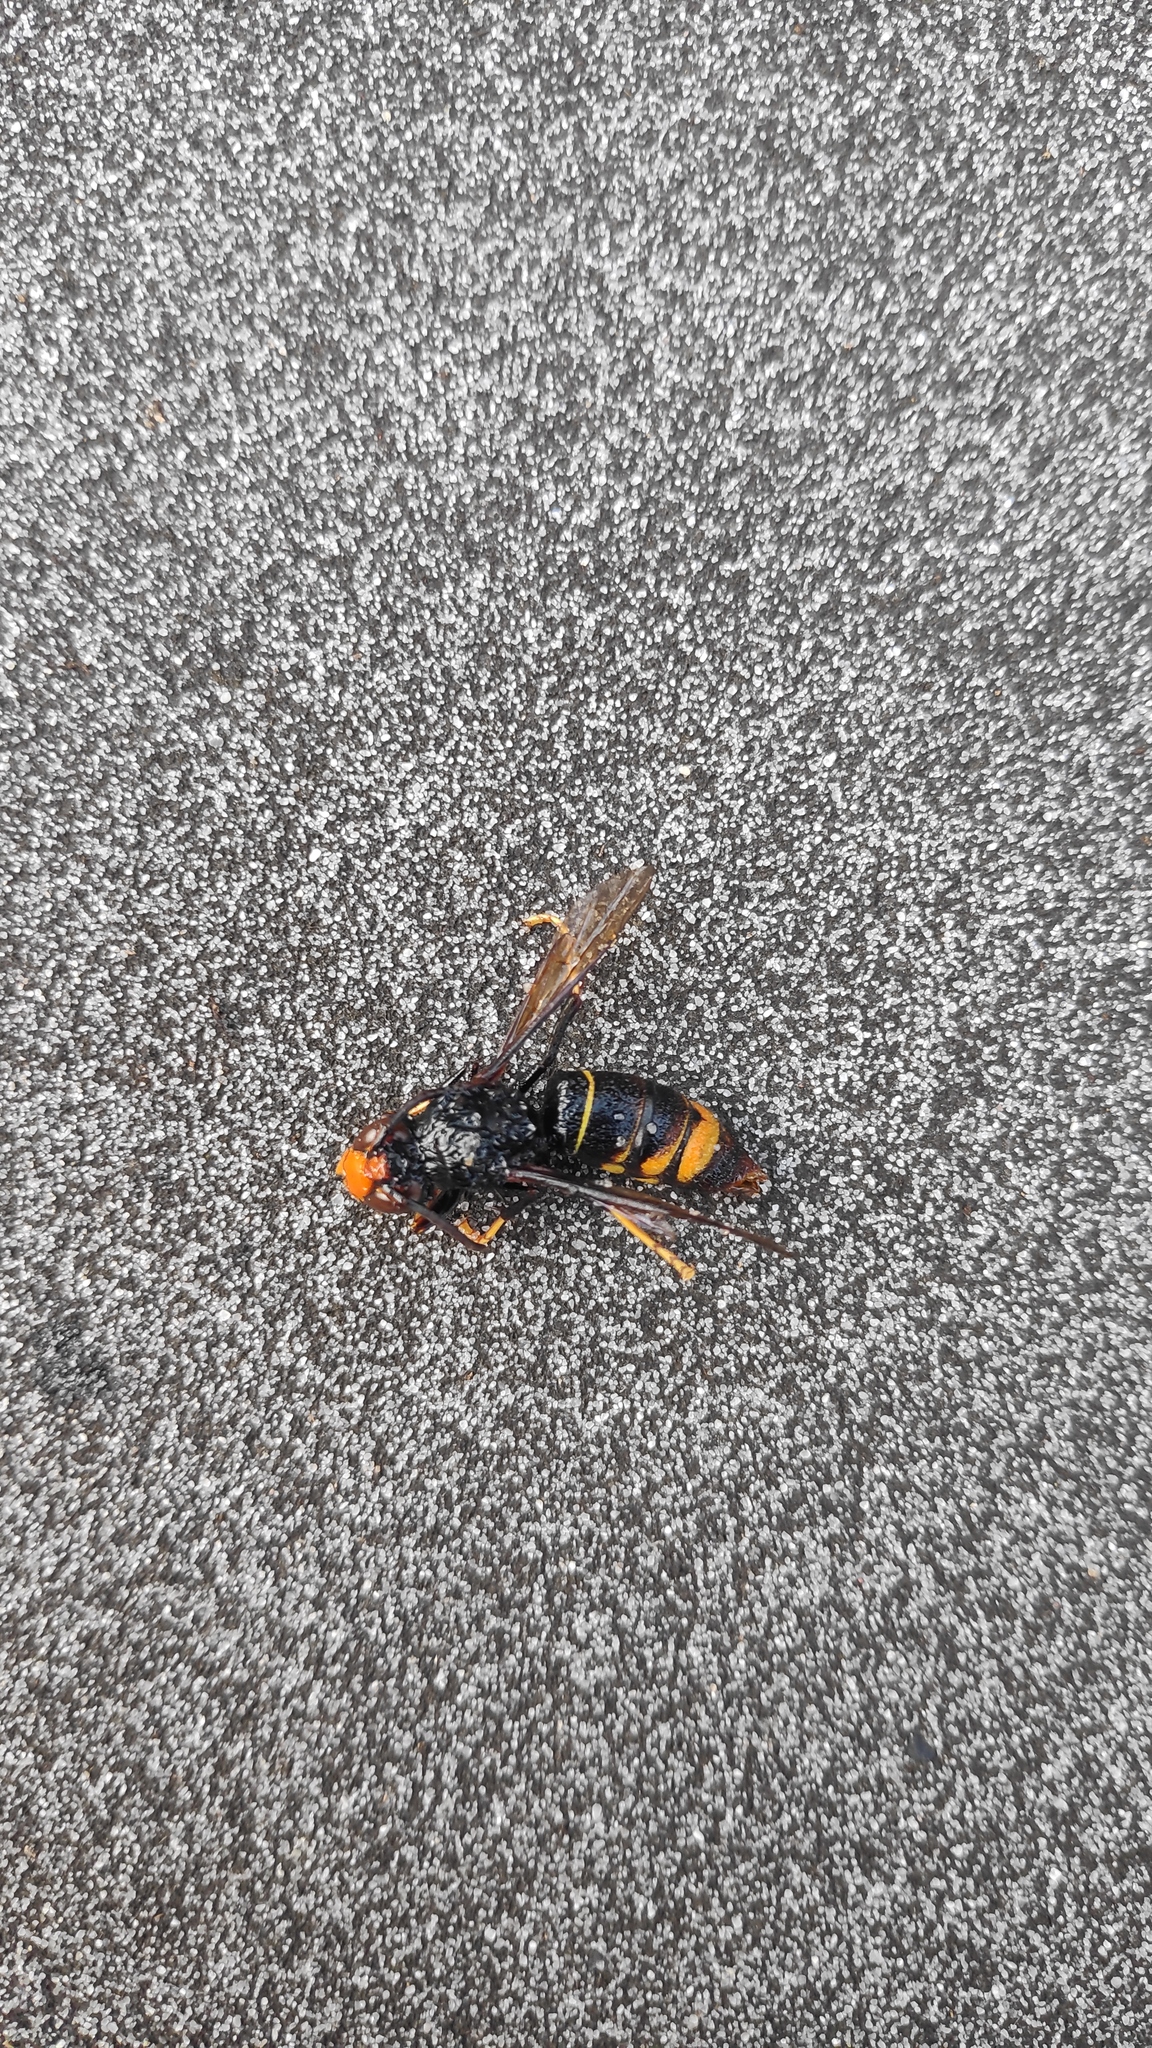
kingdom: Animalia
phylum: Arthropoda
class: Insecta
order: Hymenoptera
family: Vespidae
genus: Vespa
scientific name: Vespa velutina
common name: Asian hornet
